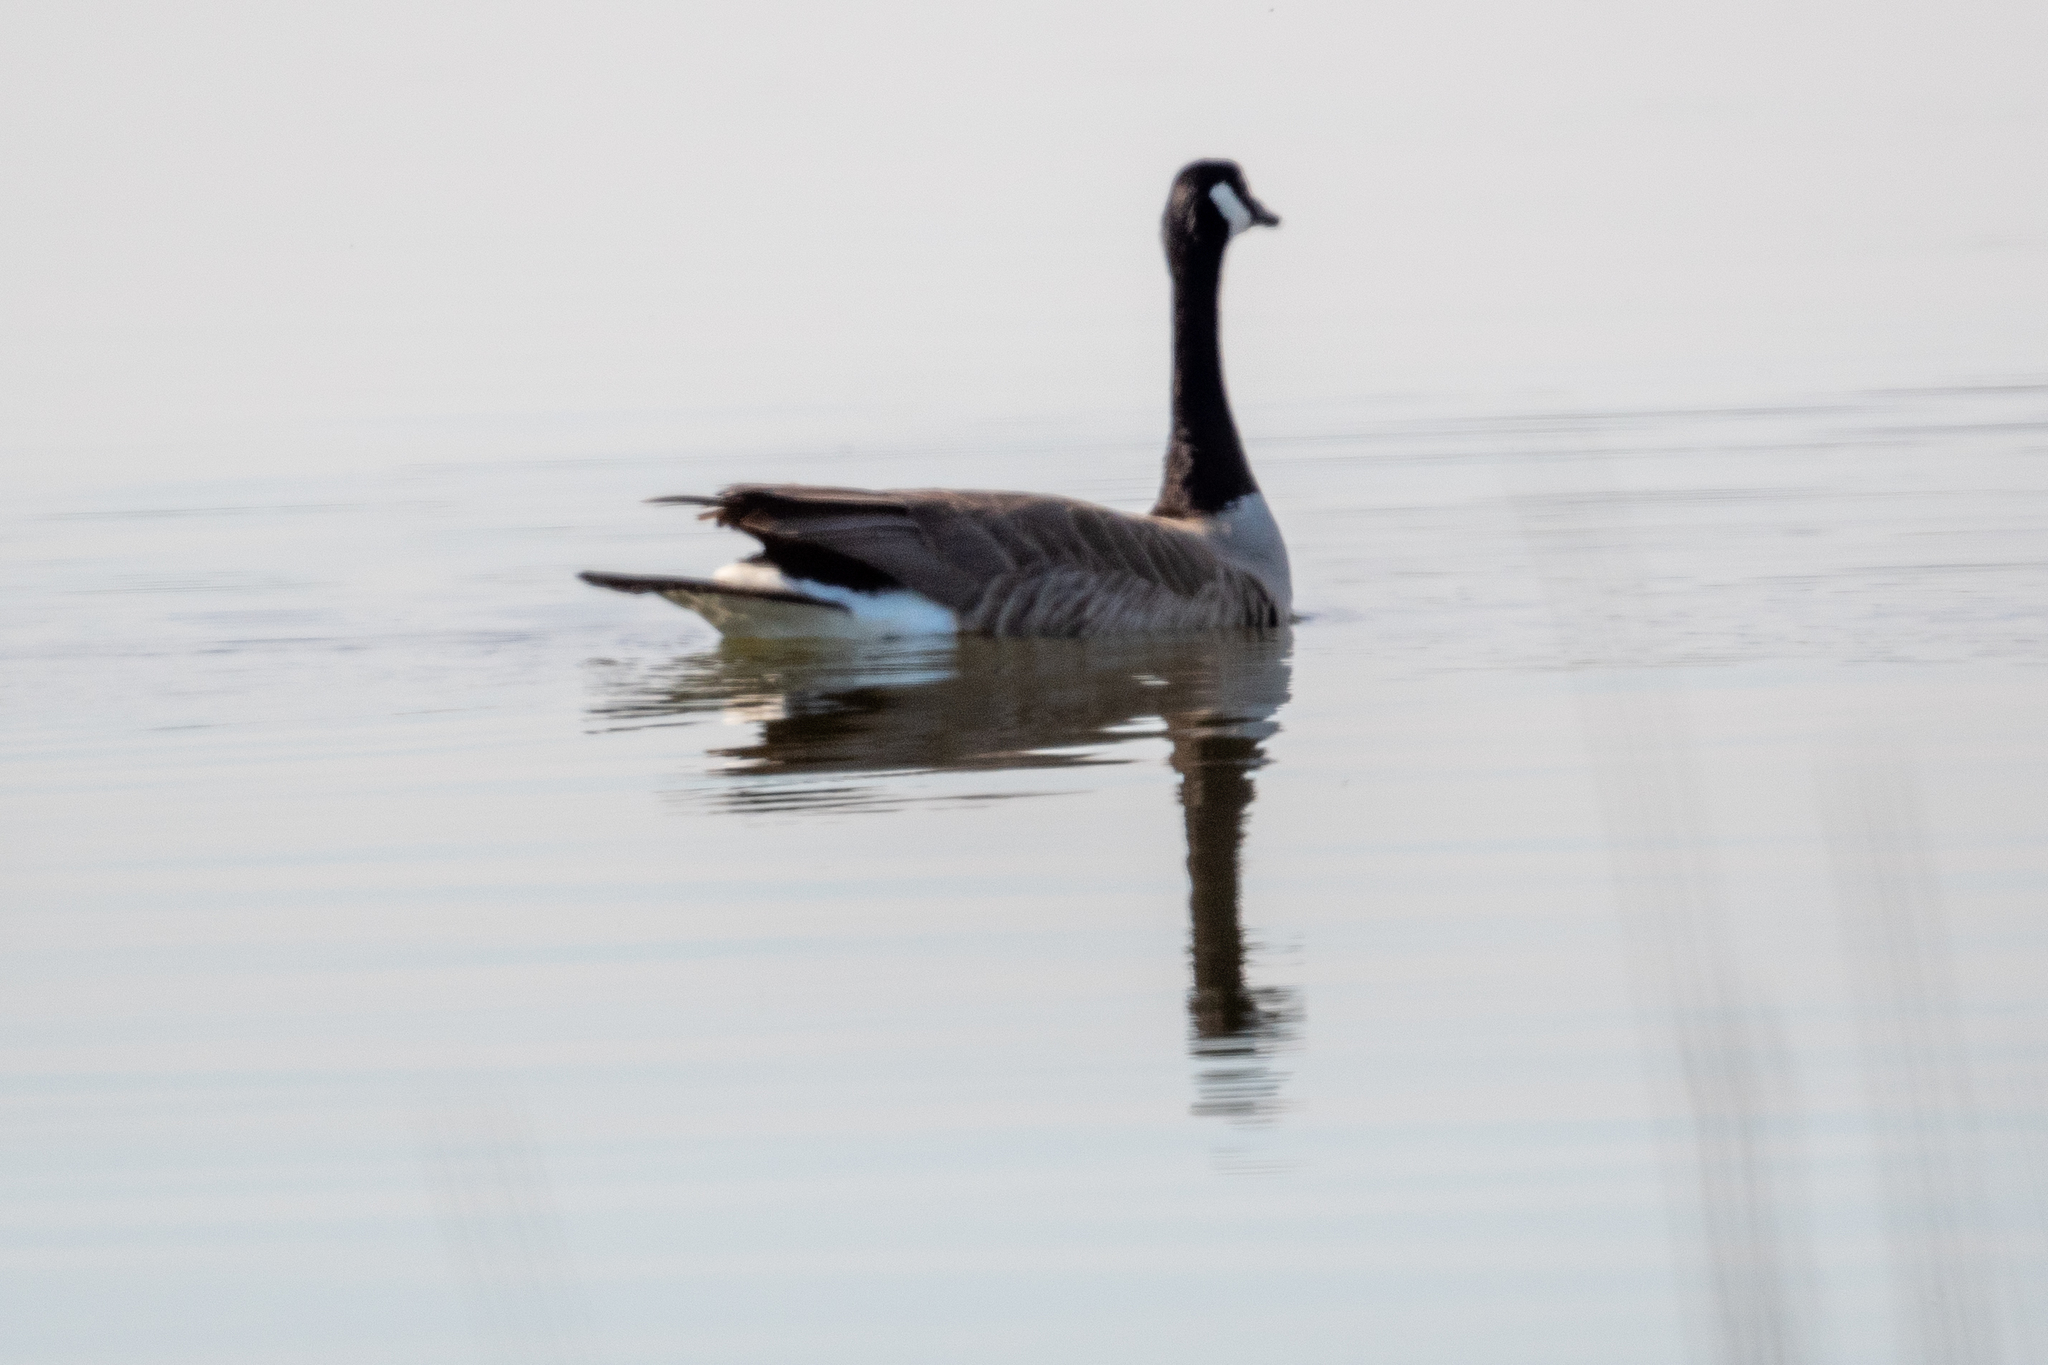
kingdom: Animalia
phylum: Chordata
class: Aves
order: Anseriformes
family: Anatidae
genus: Branta
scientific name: Branta canadensis
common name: Canada goose
